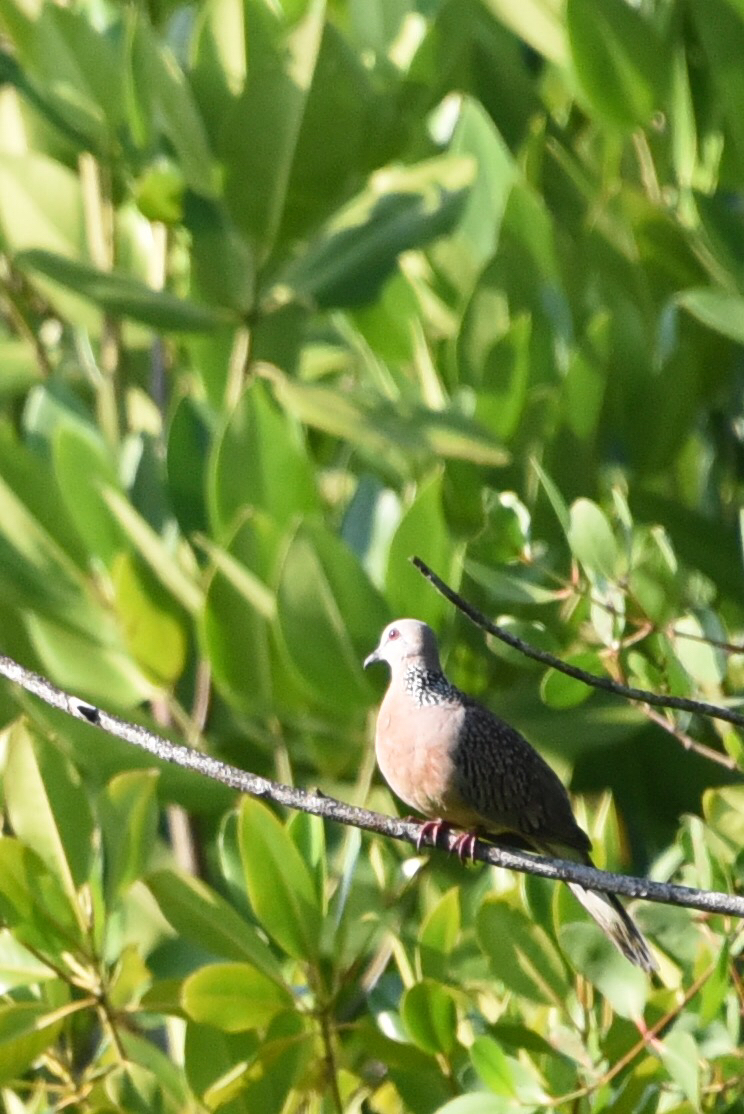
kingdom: Animalia
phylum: Chordata
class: Aves
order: Columbiformes
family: Columbidae
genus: Spilopelia
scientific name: Spilopelia chinensis
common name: Spotted dove
